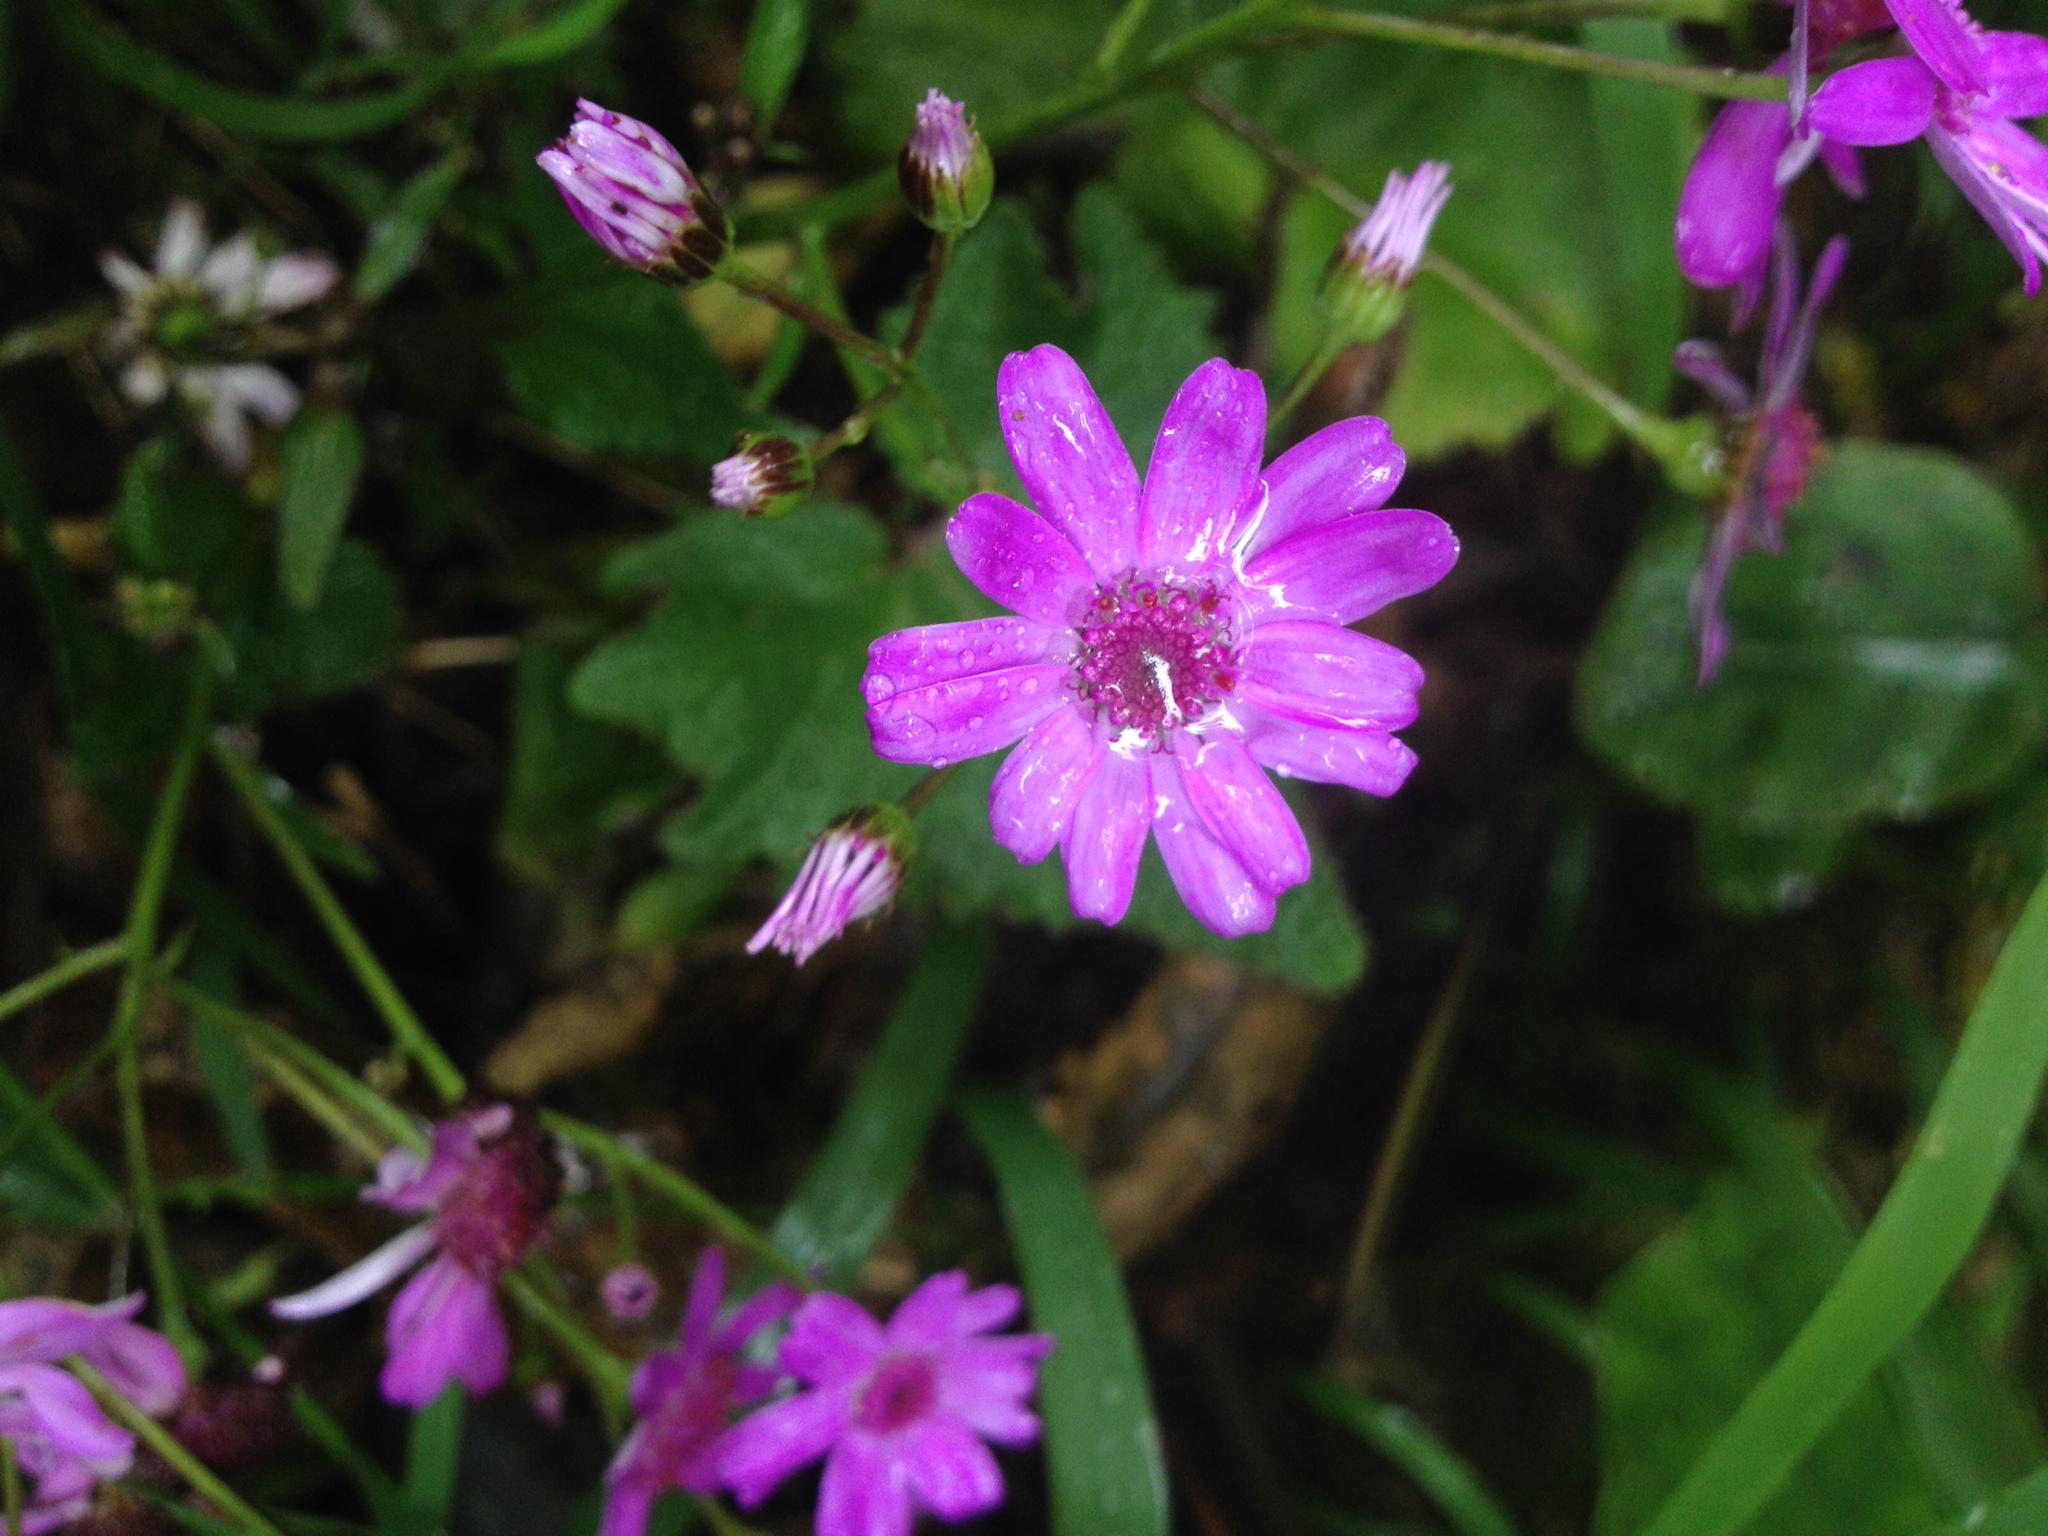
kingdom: Plantae
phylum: Tracheophyta
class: Magnoliopsida
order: Asterales
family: Asteraceae
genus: Pericallis
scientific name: Pericallis hybrida
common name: Cineraria
